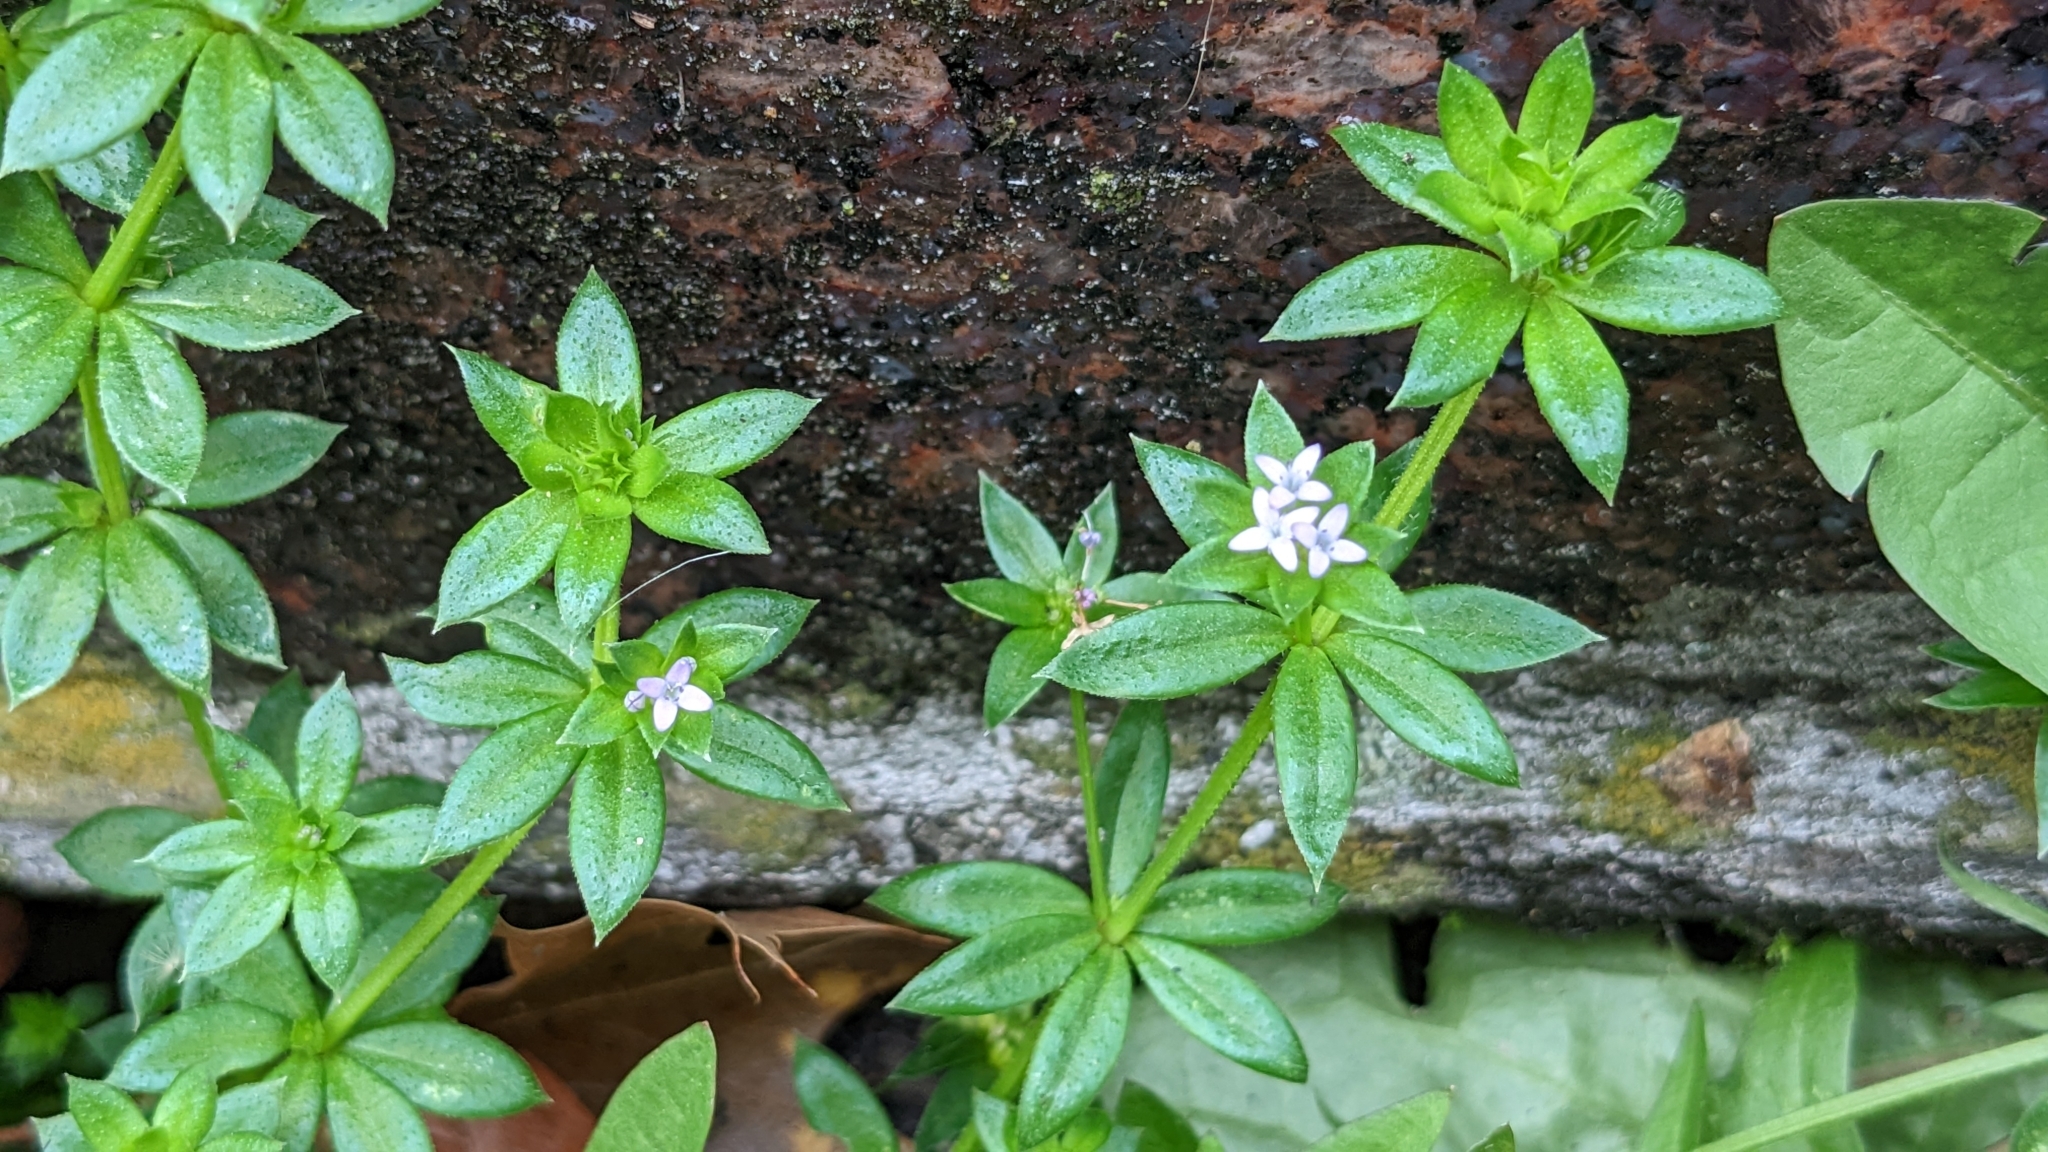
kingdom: Plantae
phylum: Tracheophyta
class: Magnoliopsida
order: Gentianales
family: Rubiaceae
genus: Sherardia
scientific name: Sherardia arvensis
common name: Field madder
